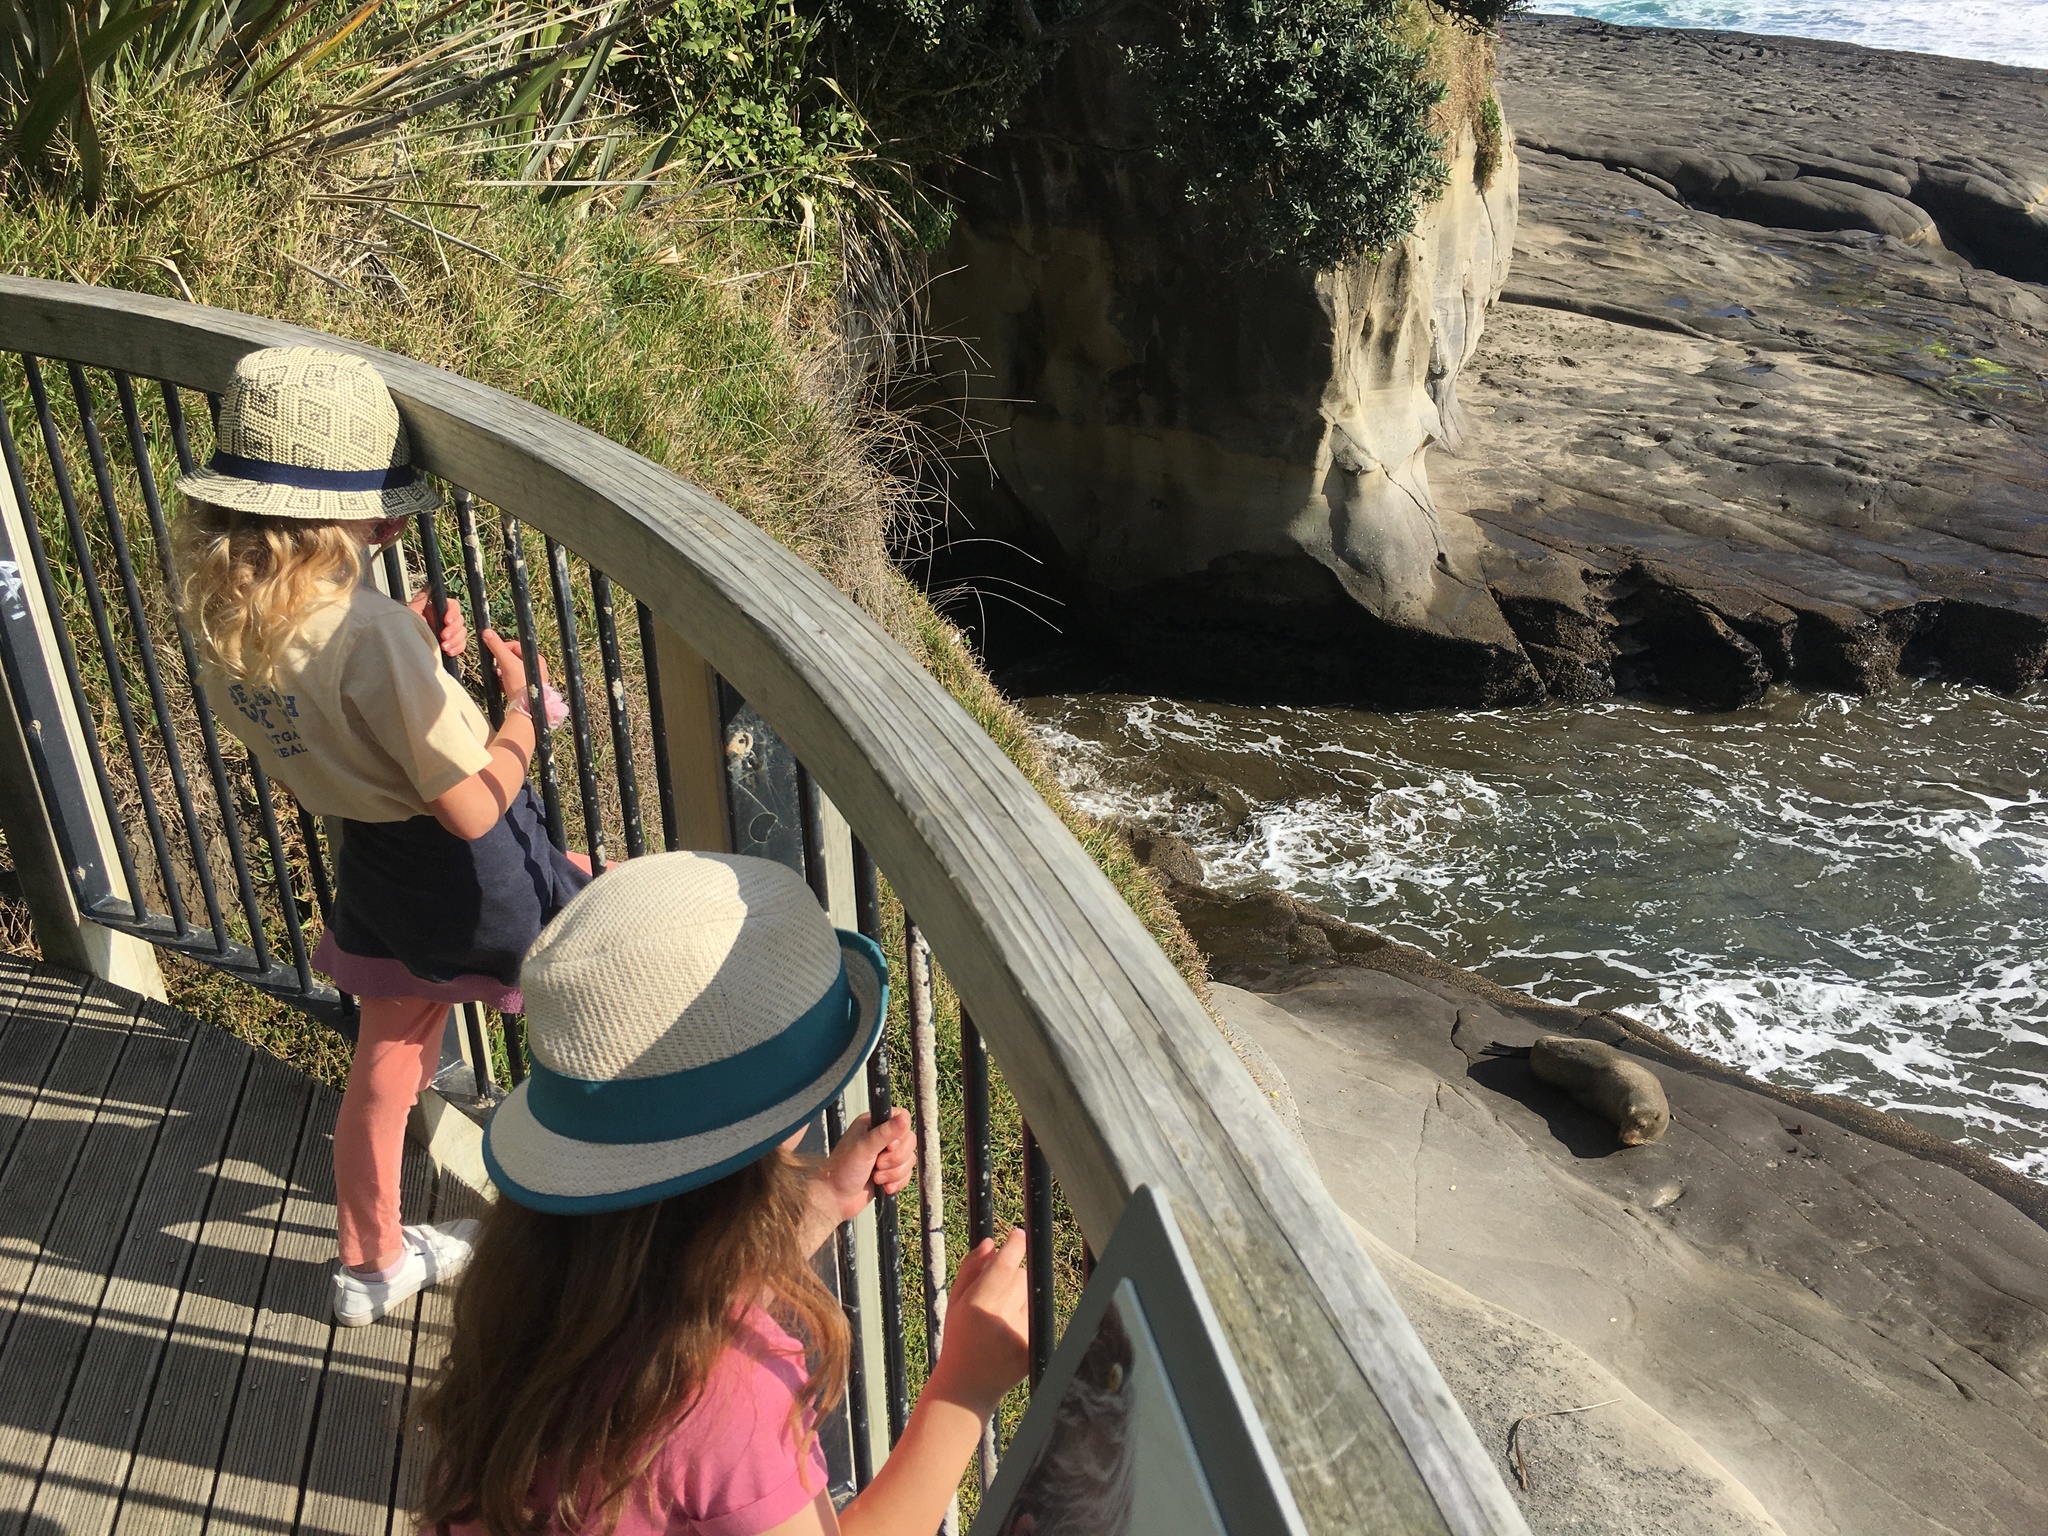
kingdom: Animalia
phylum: Chordata
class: Mammalia
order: Carnivora
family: Otariidae
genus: Arctocephalus
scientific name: Arctocephalus forsteri
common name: New zealand fur seal
